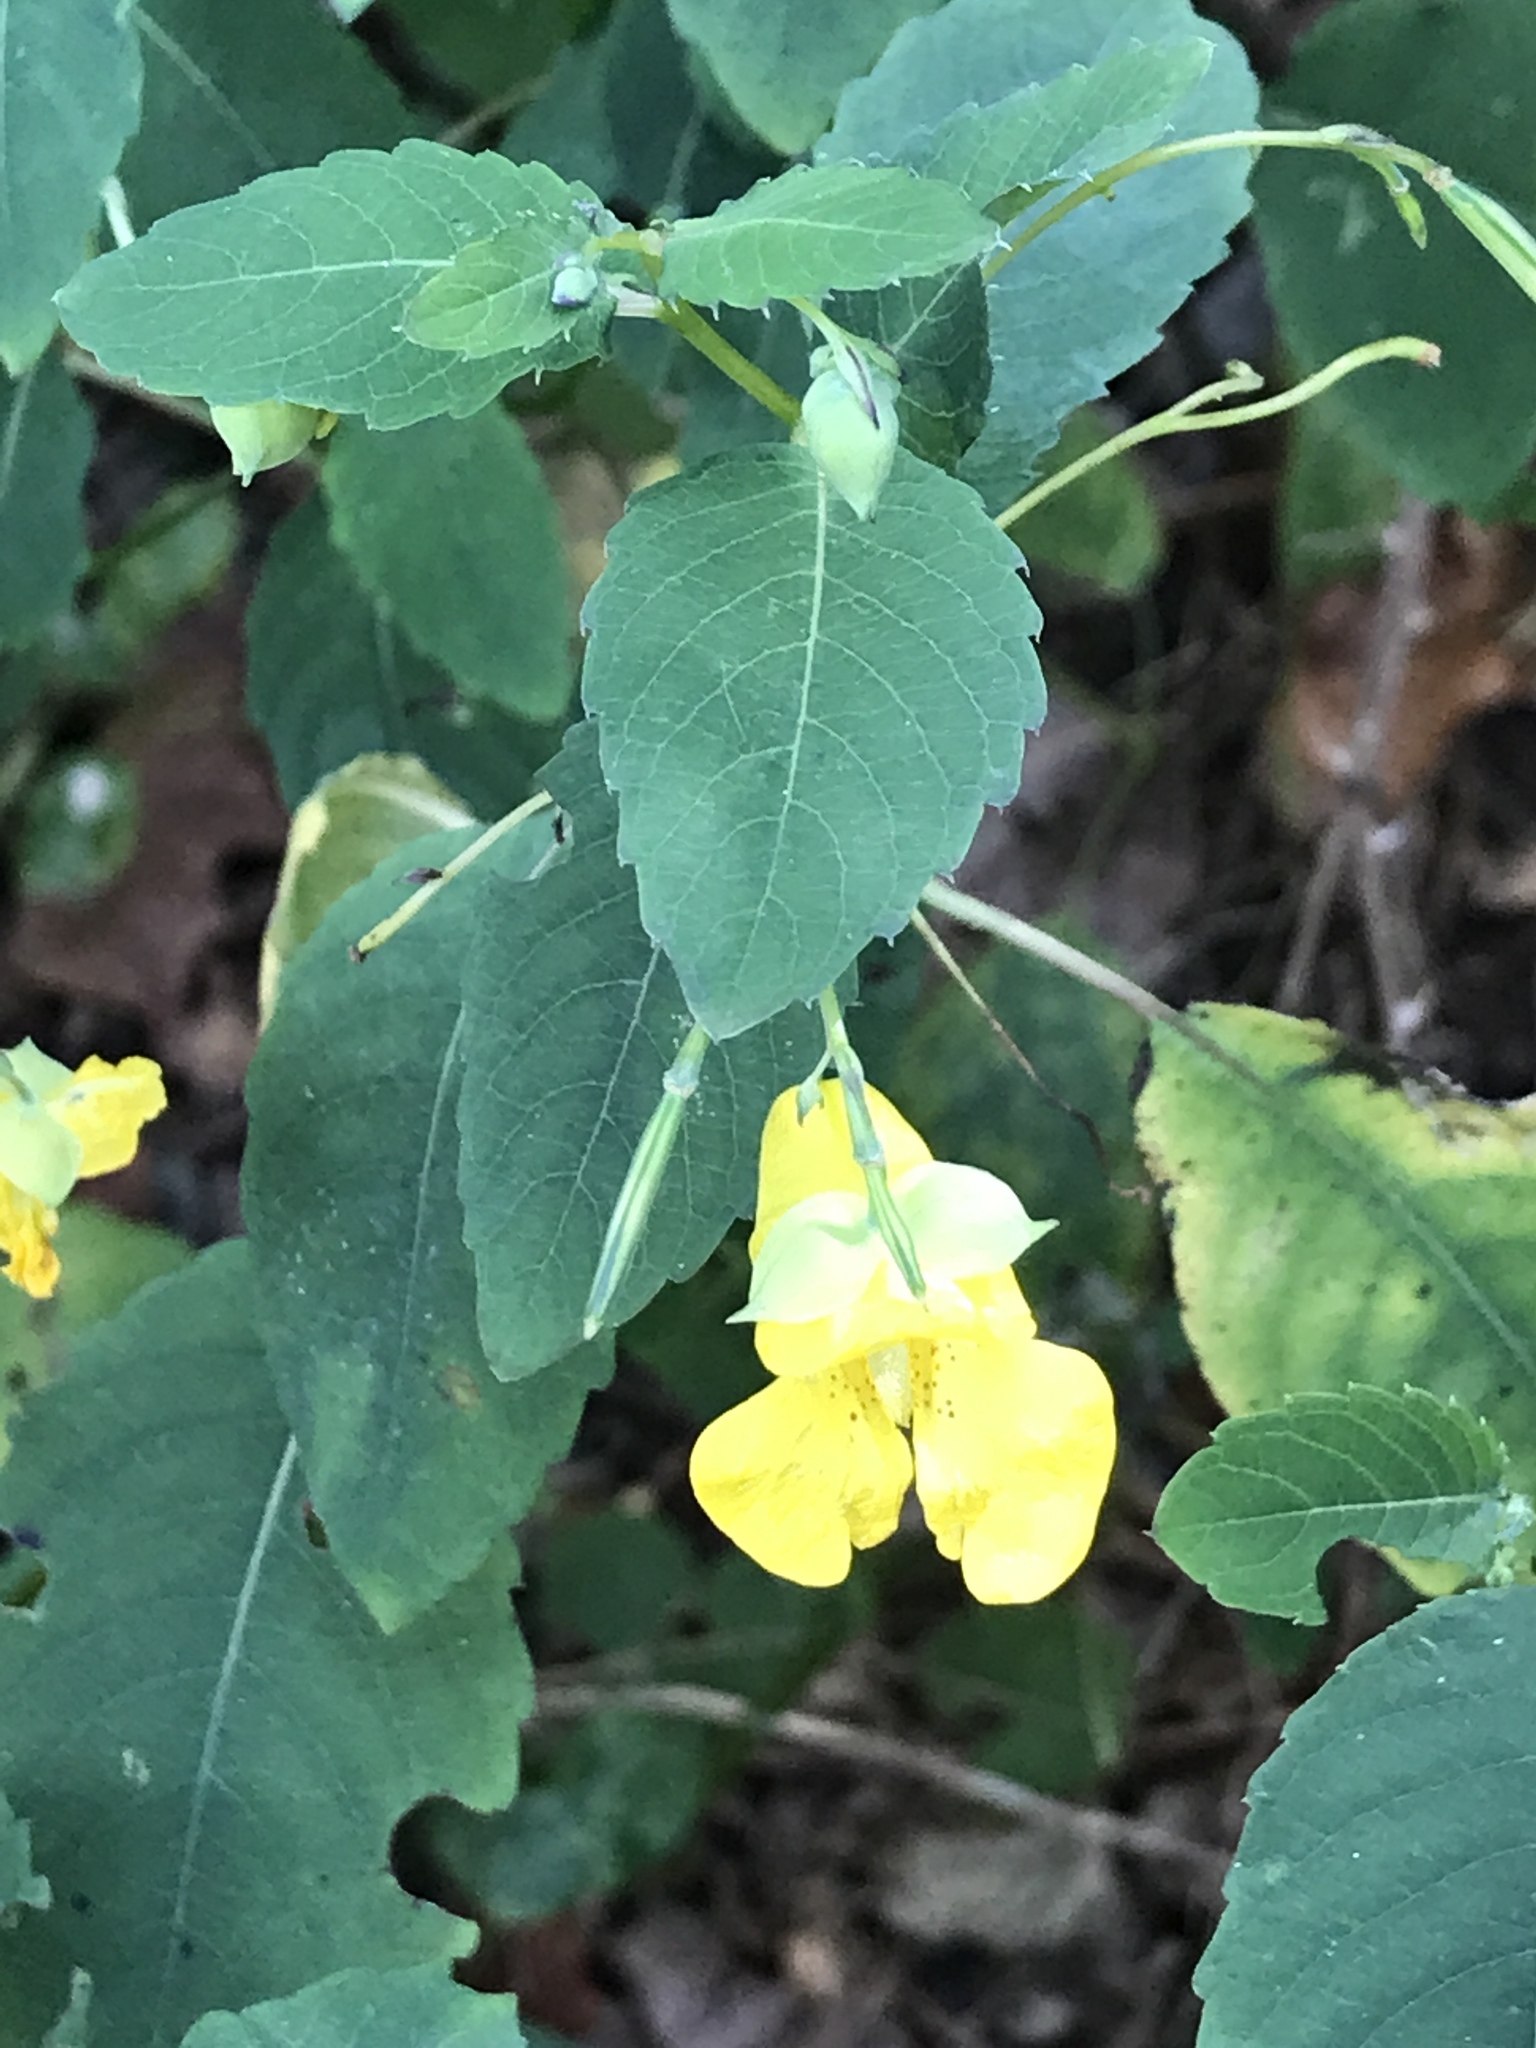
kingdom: Plantae
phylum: Tracheophyta
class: Magnoliopsida
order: Ericales
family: Balsaminaceae
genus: Impatiens
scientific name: Impatiens pallida
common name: Pale snapweed
